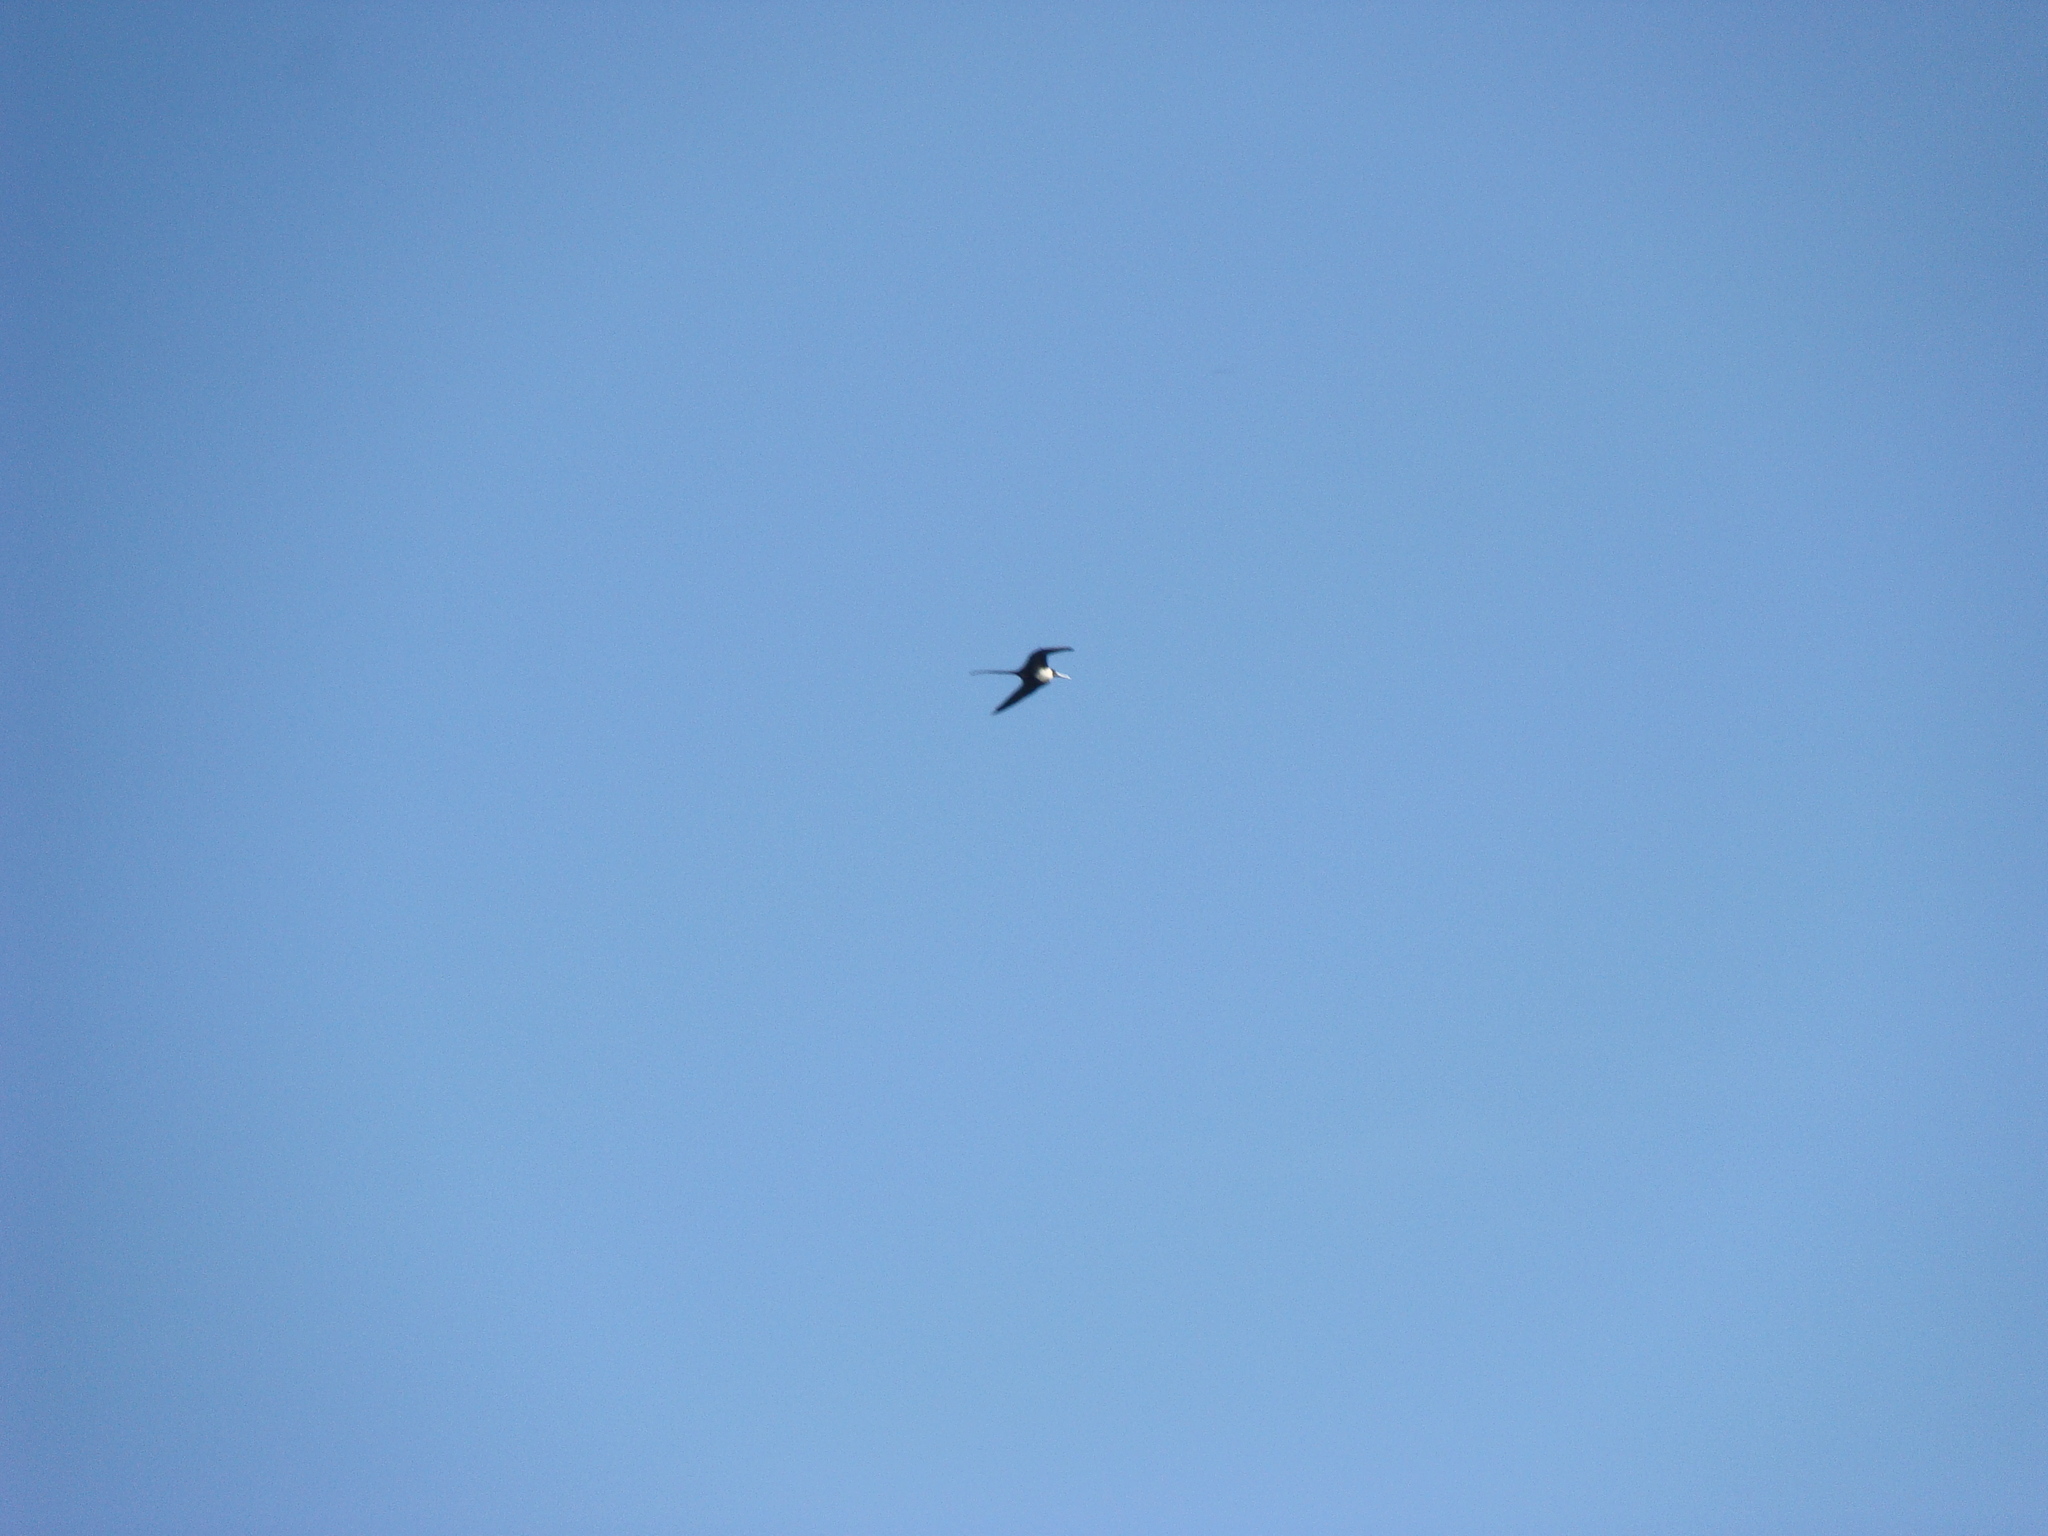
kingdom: Animalia
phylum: Chordata
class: Aves
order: Suliformes
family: Fregatidae
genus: Fregata
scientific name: Fregata magnificens
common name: Magnificent frigatebird
